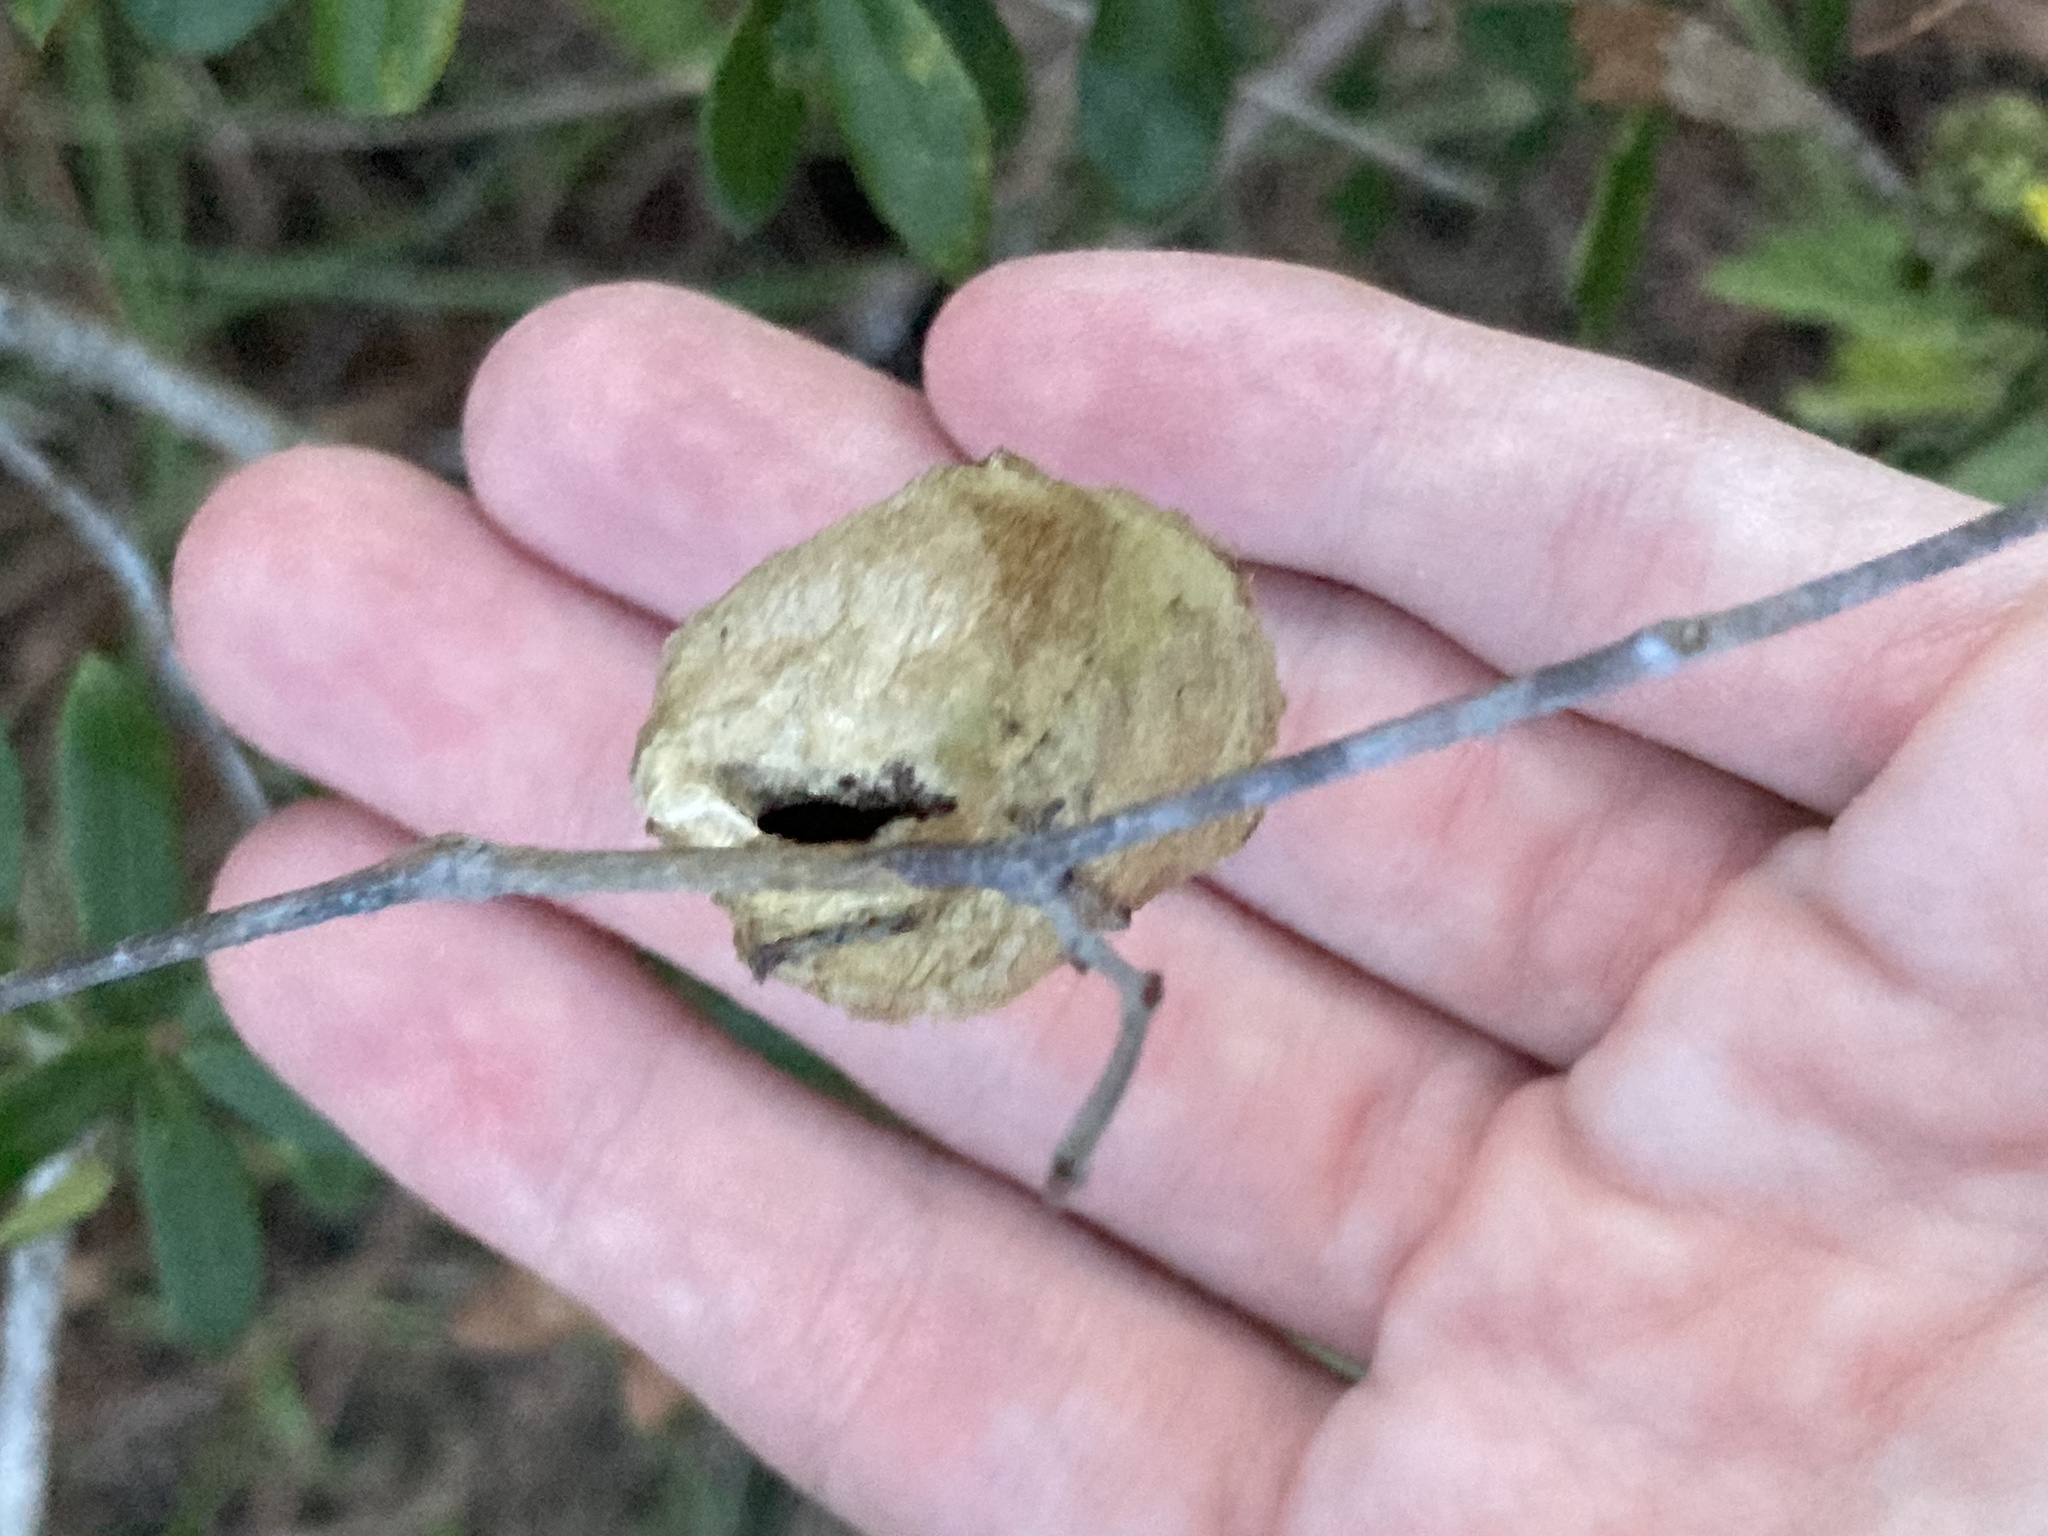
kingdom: Animalia
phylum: Arthropoda
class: Insecta
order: Lepidoptera
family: Saturniidae
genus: Antheraea
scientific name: Antheraea polyphemus
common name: Polyphemus moth
